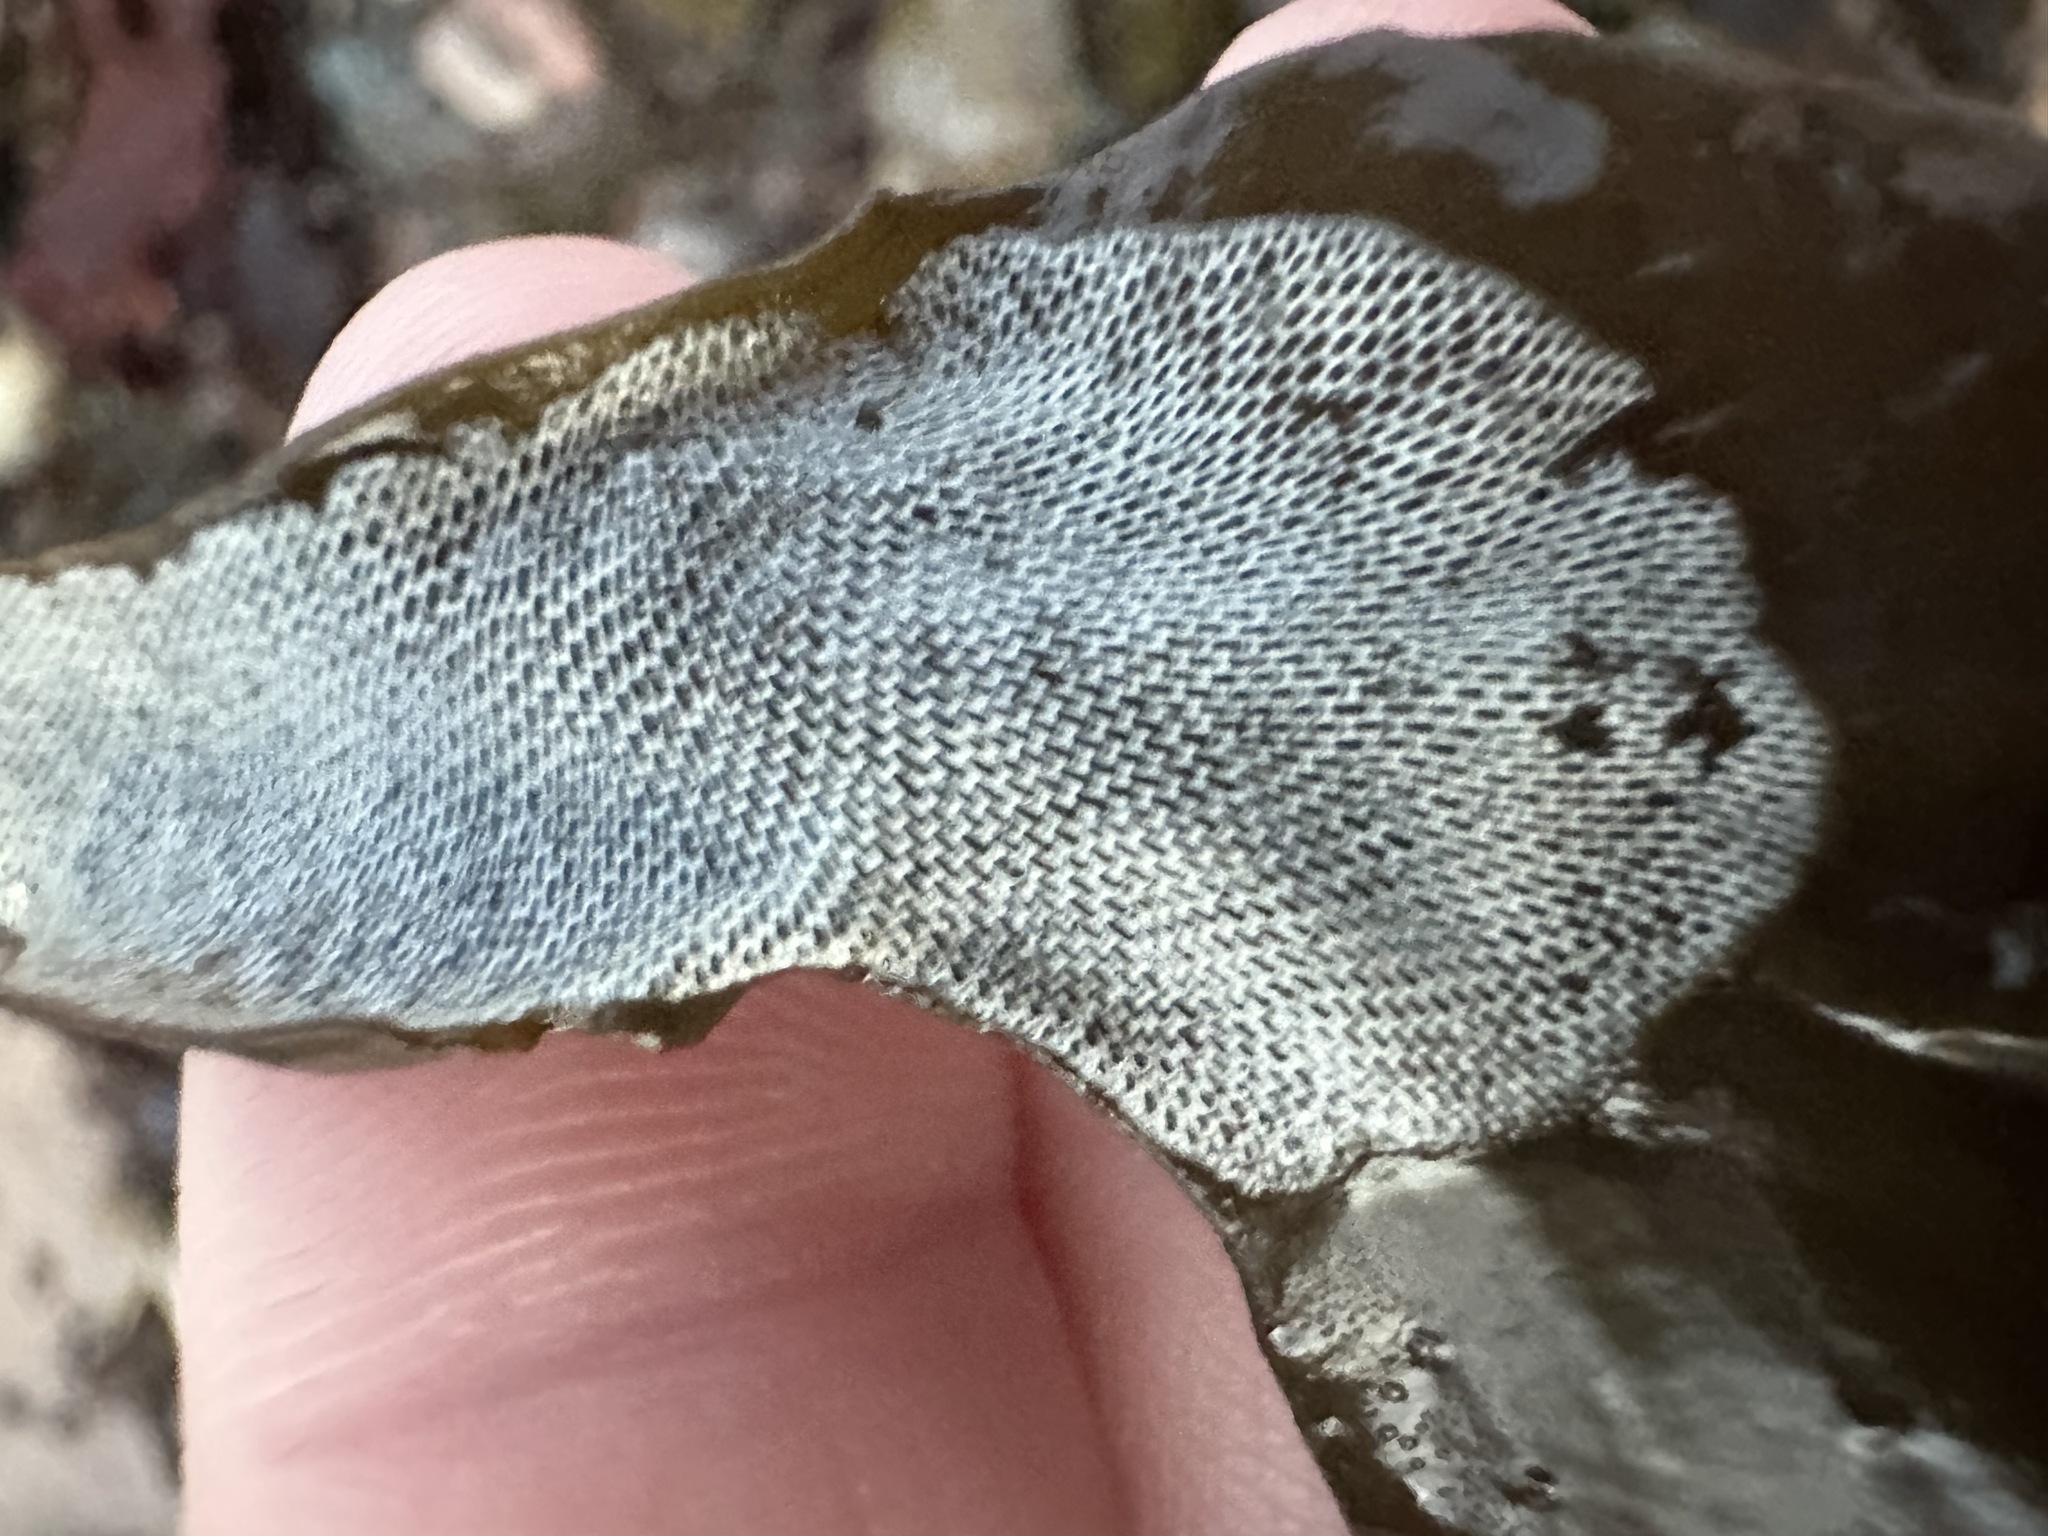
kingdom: Animalia
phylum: Bryozoa
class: Gymnolaemata
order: Cheilostomatida
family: Membraniporidae
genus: Membranipora
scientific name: Membranipora membranacea
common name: Sea mat
